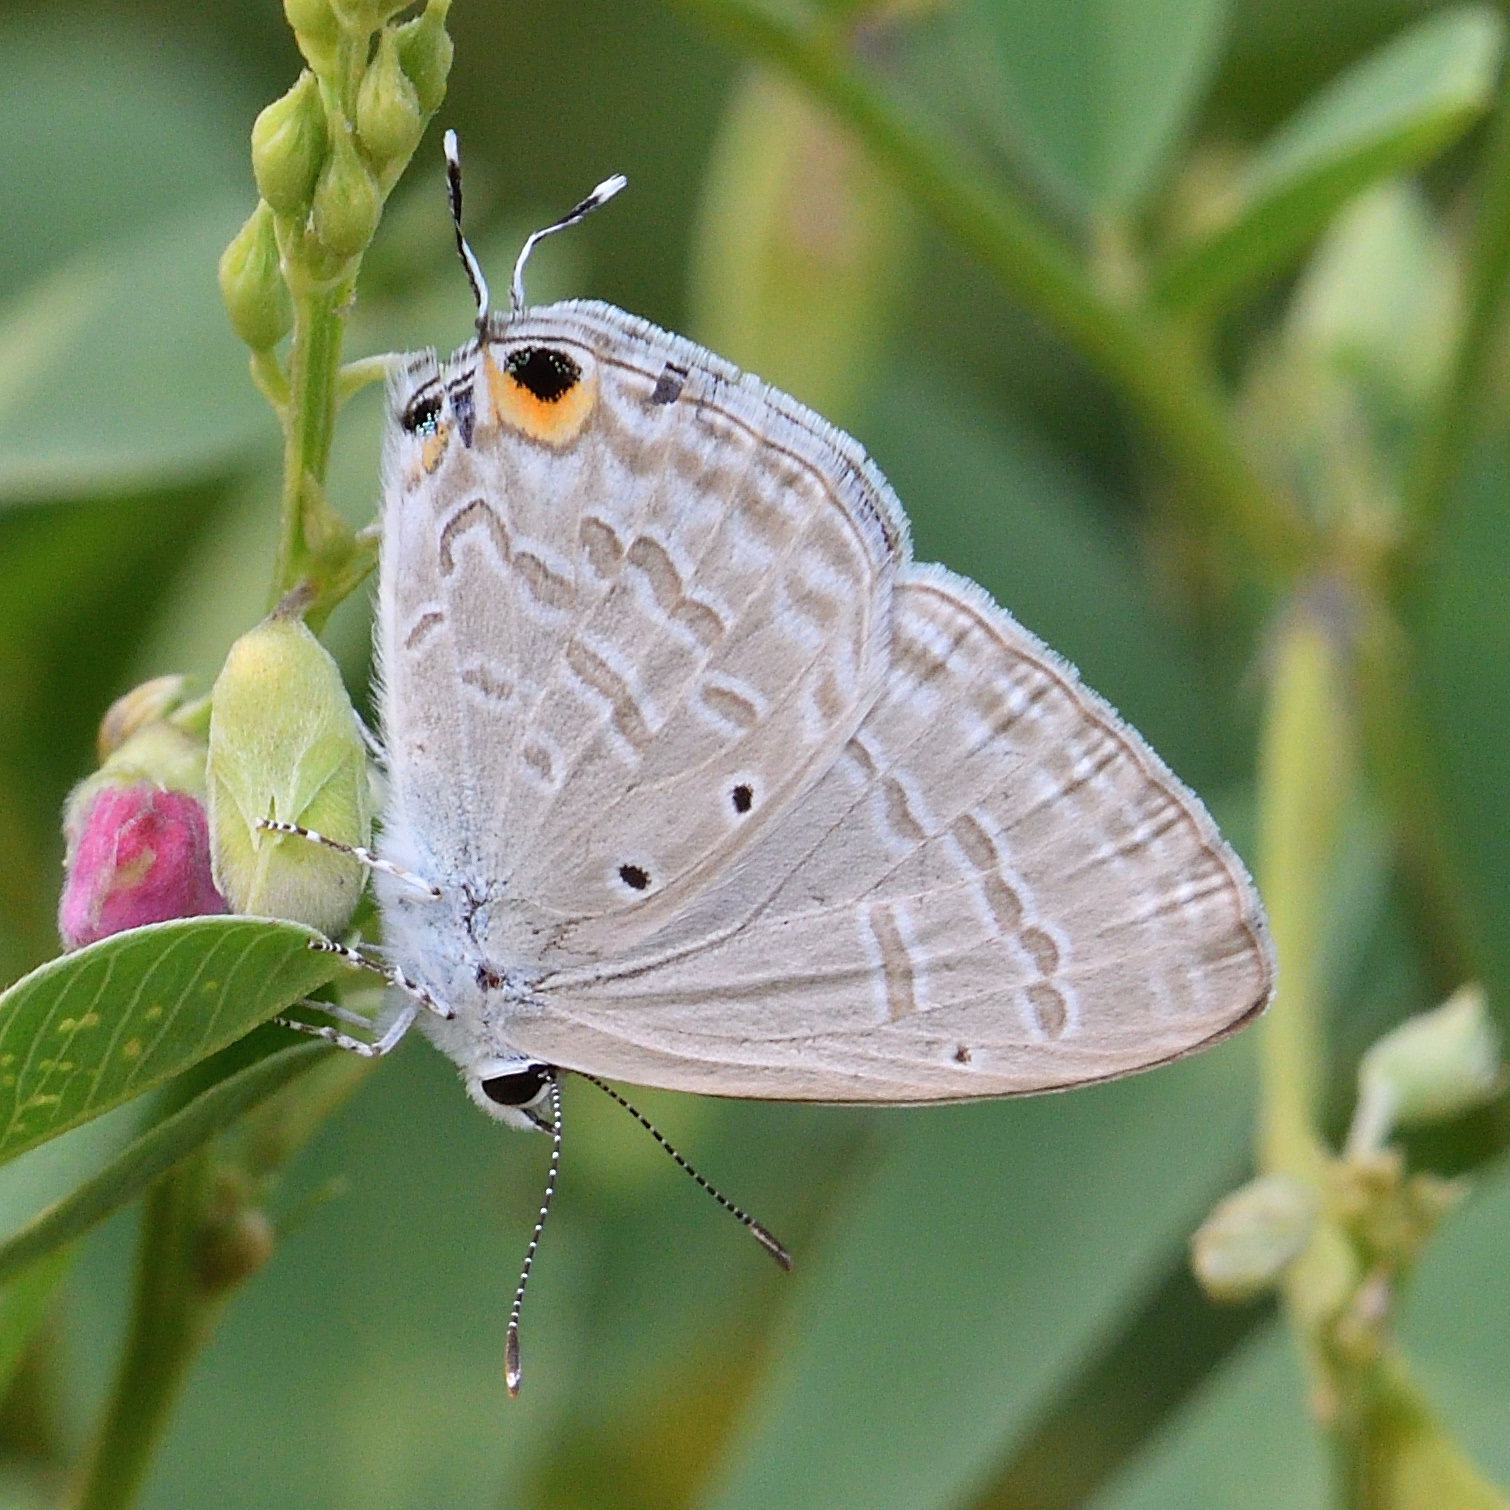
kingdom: Animalia
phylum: Arthropoda
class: Insecta
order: Lepidoptera
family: Lycaenidae
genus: Catochrysops
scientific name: Catochrysops strabo
